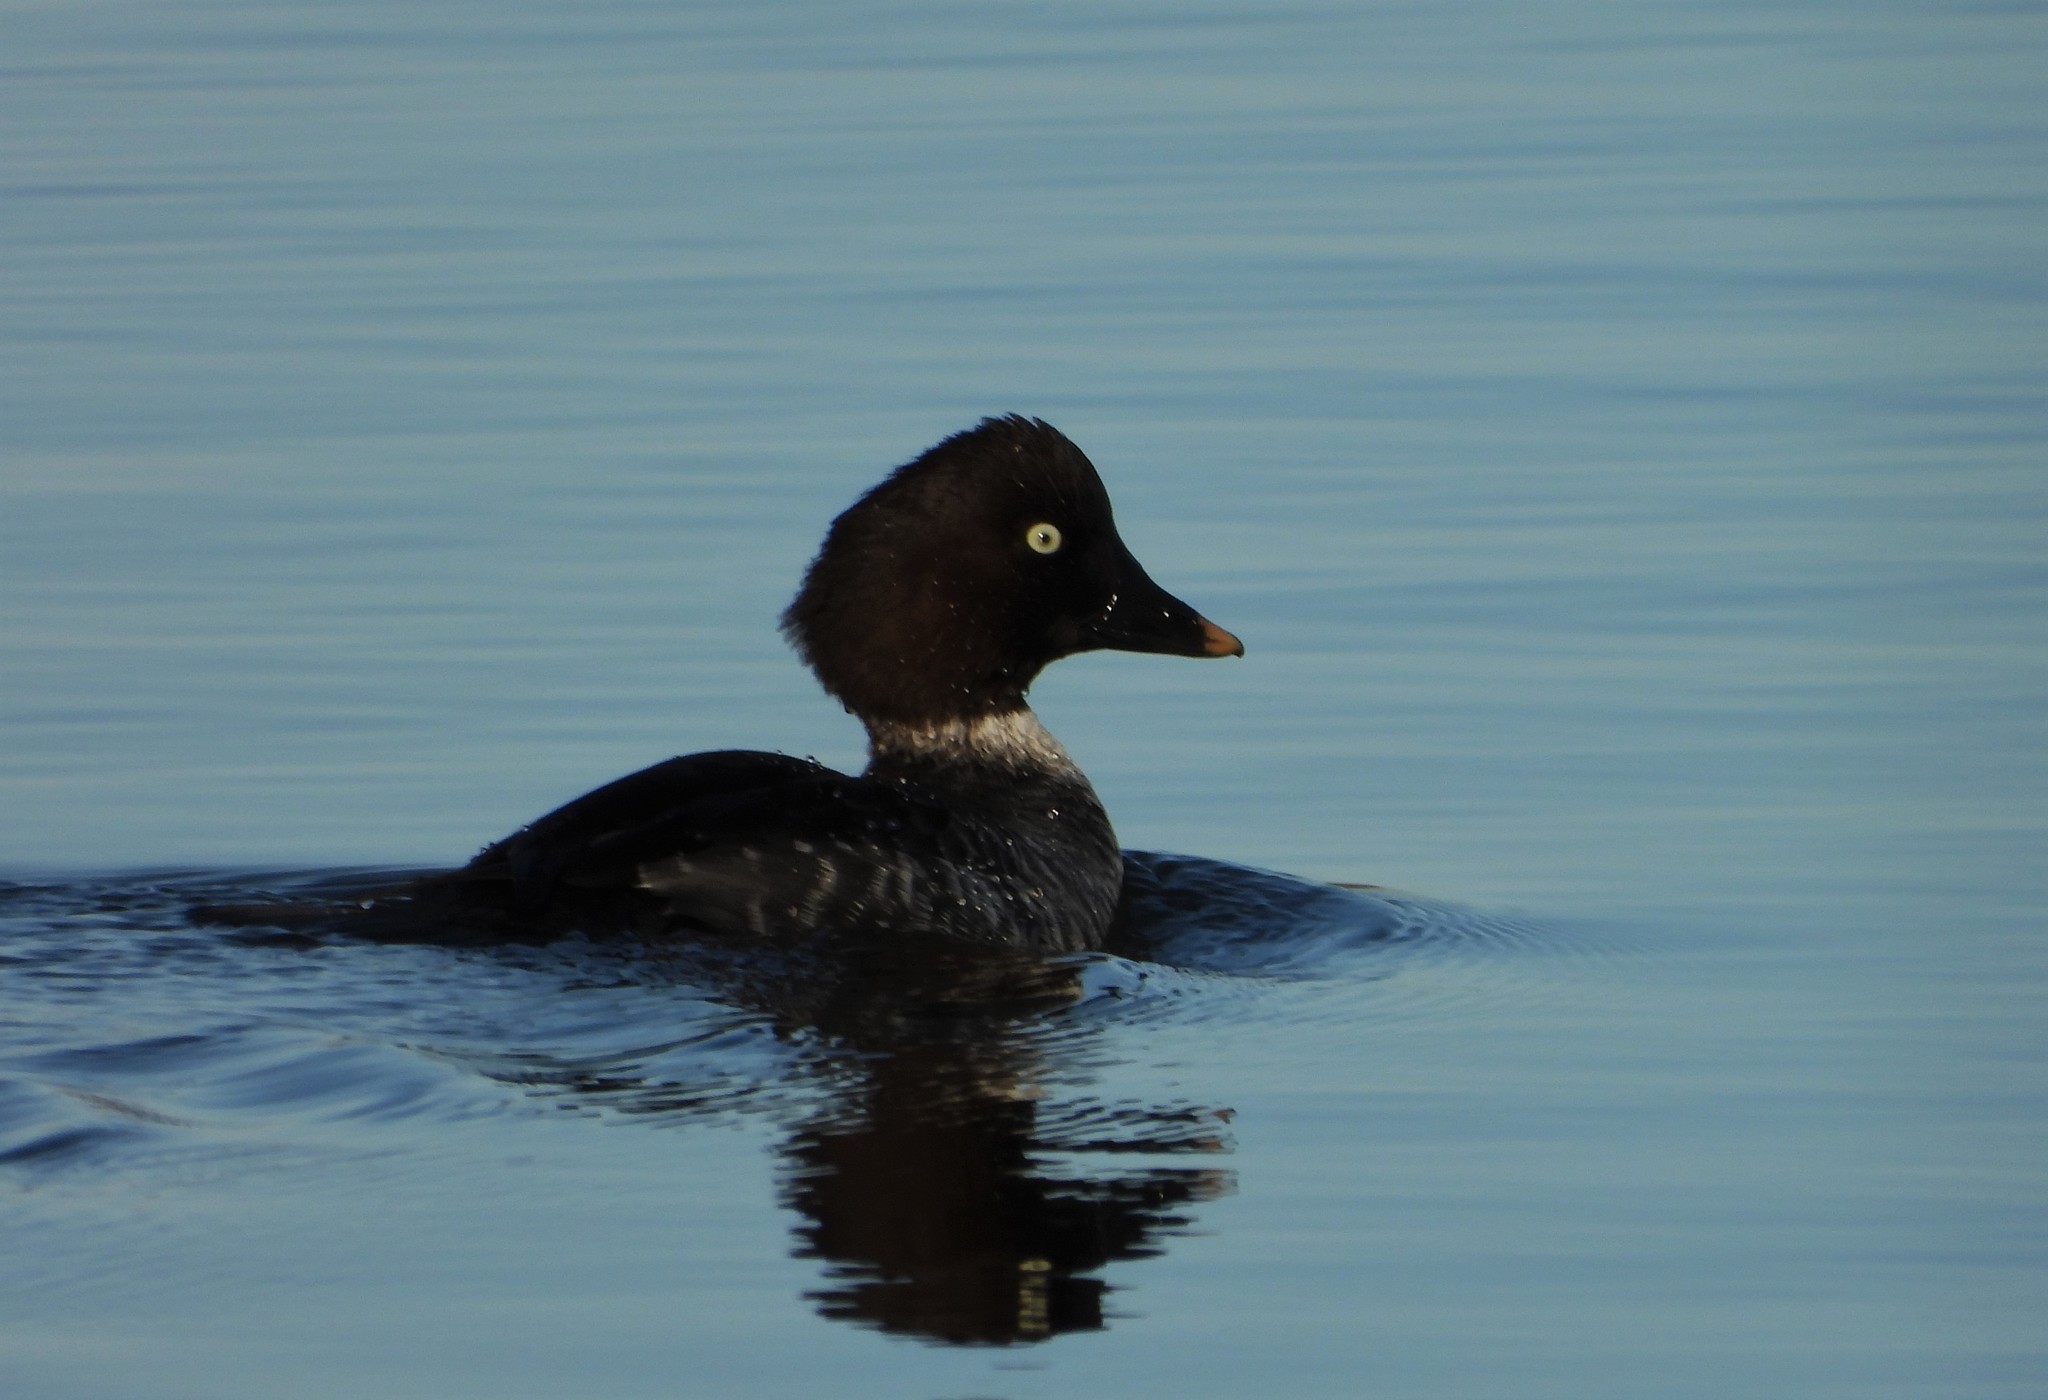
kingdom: Animalia
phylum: Chordata
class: Aves
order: Anseriformes
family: Anatidae
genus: Bucephala
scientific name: Bucephala clangula
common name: Common goldeneye
